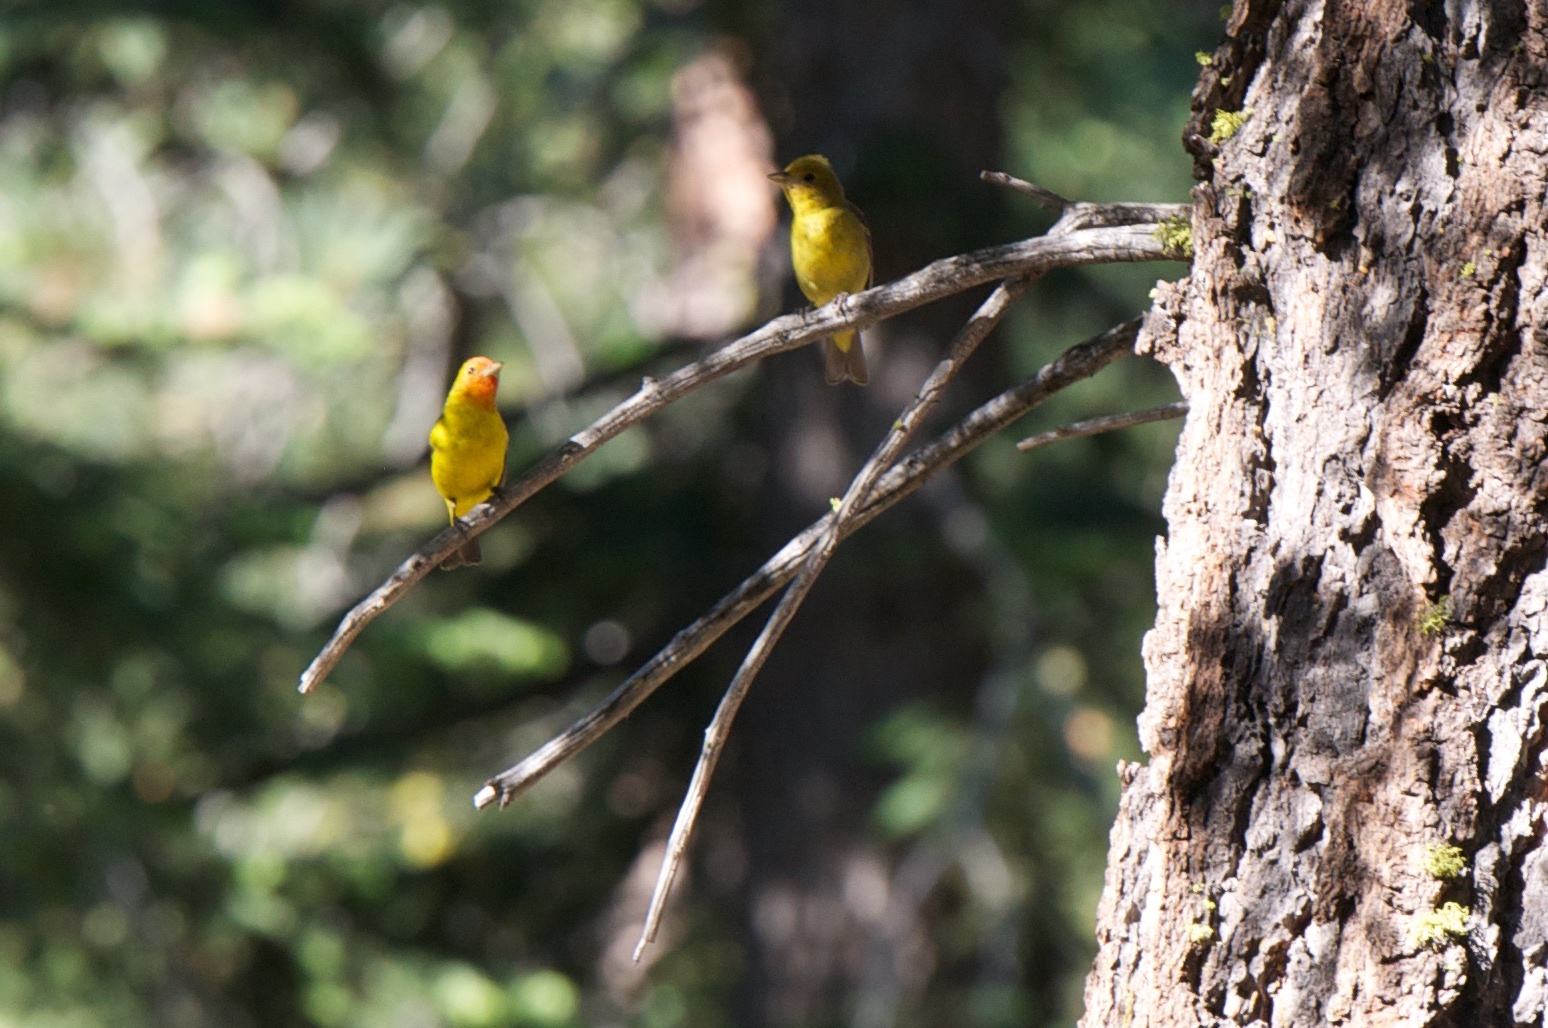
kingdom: Animalia
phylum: Chordata
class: Aves
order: Passeriformes
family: Cardinalidae
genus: Piranga
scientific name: Piranga ludoviciana
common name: Western tanager
